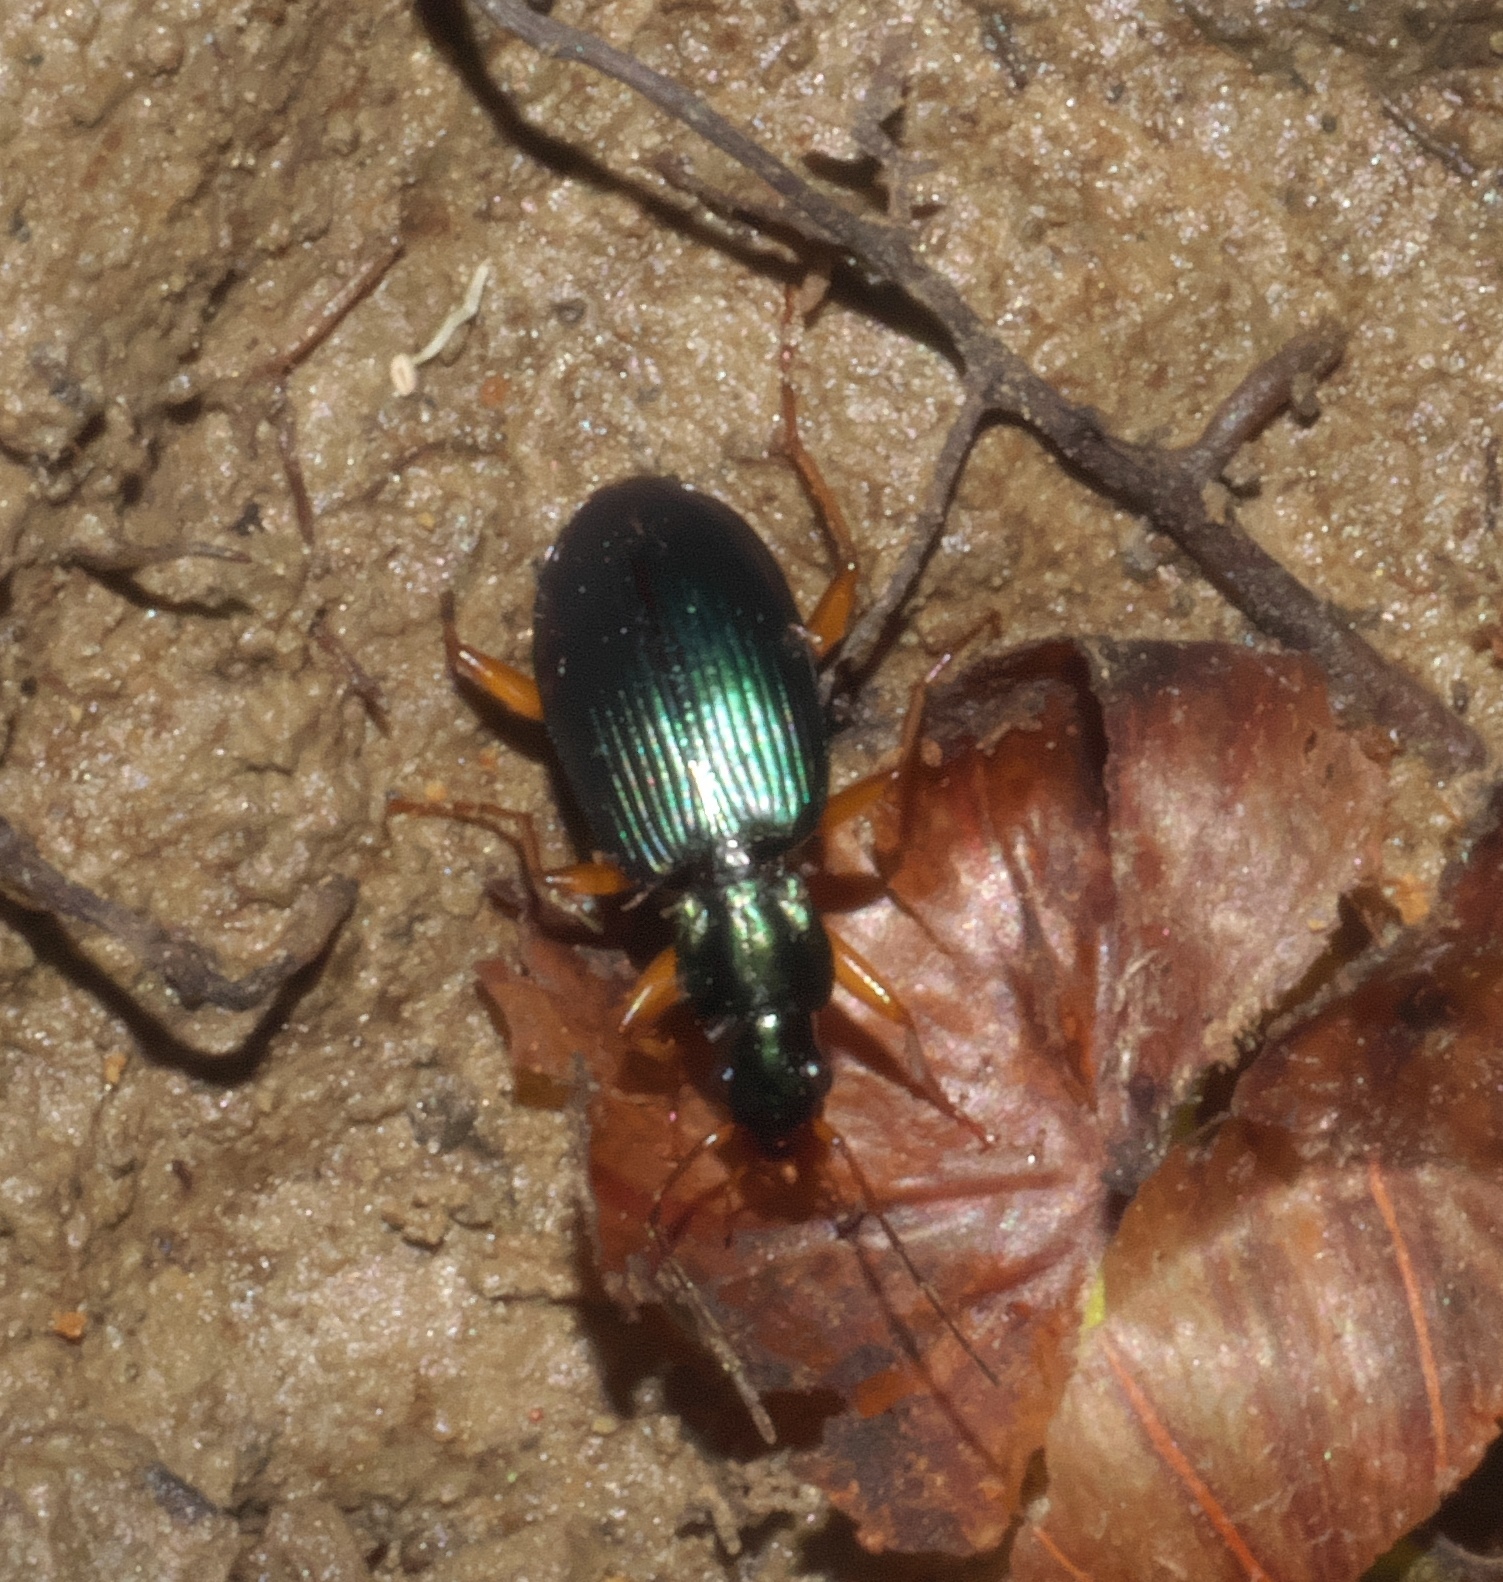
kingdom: Animalia
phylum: Arthropoda
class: Insecta
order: Coleoptera
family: Carabidae
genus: Agonum
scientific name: Agonum extensicolle
